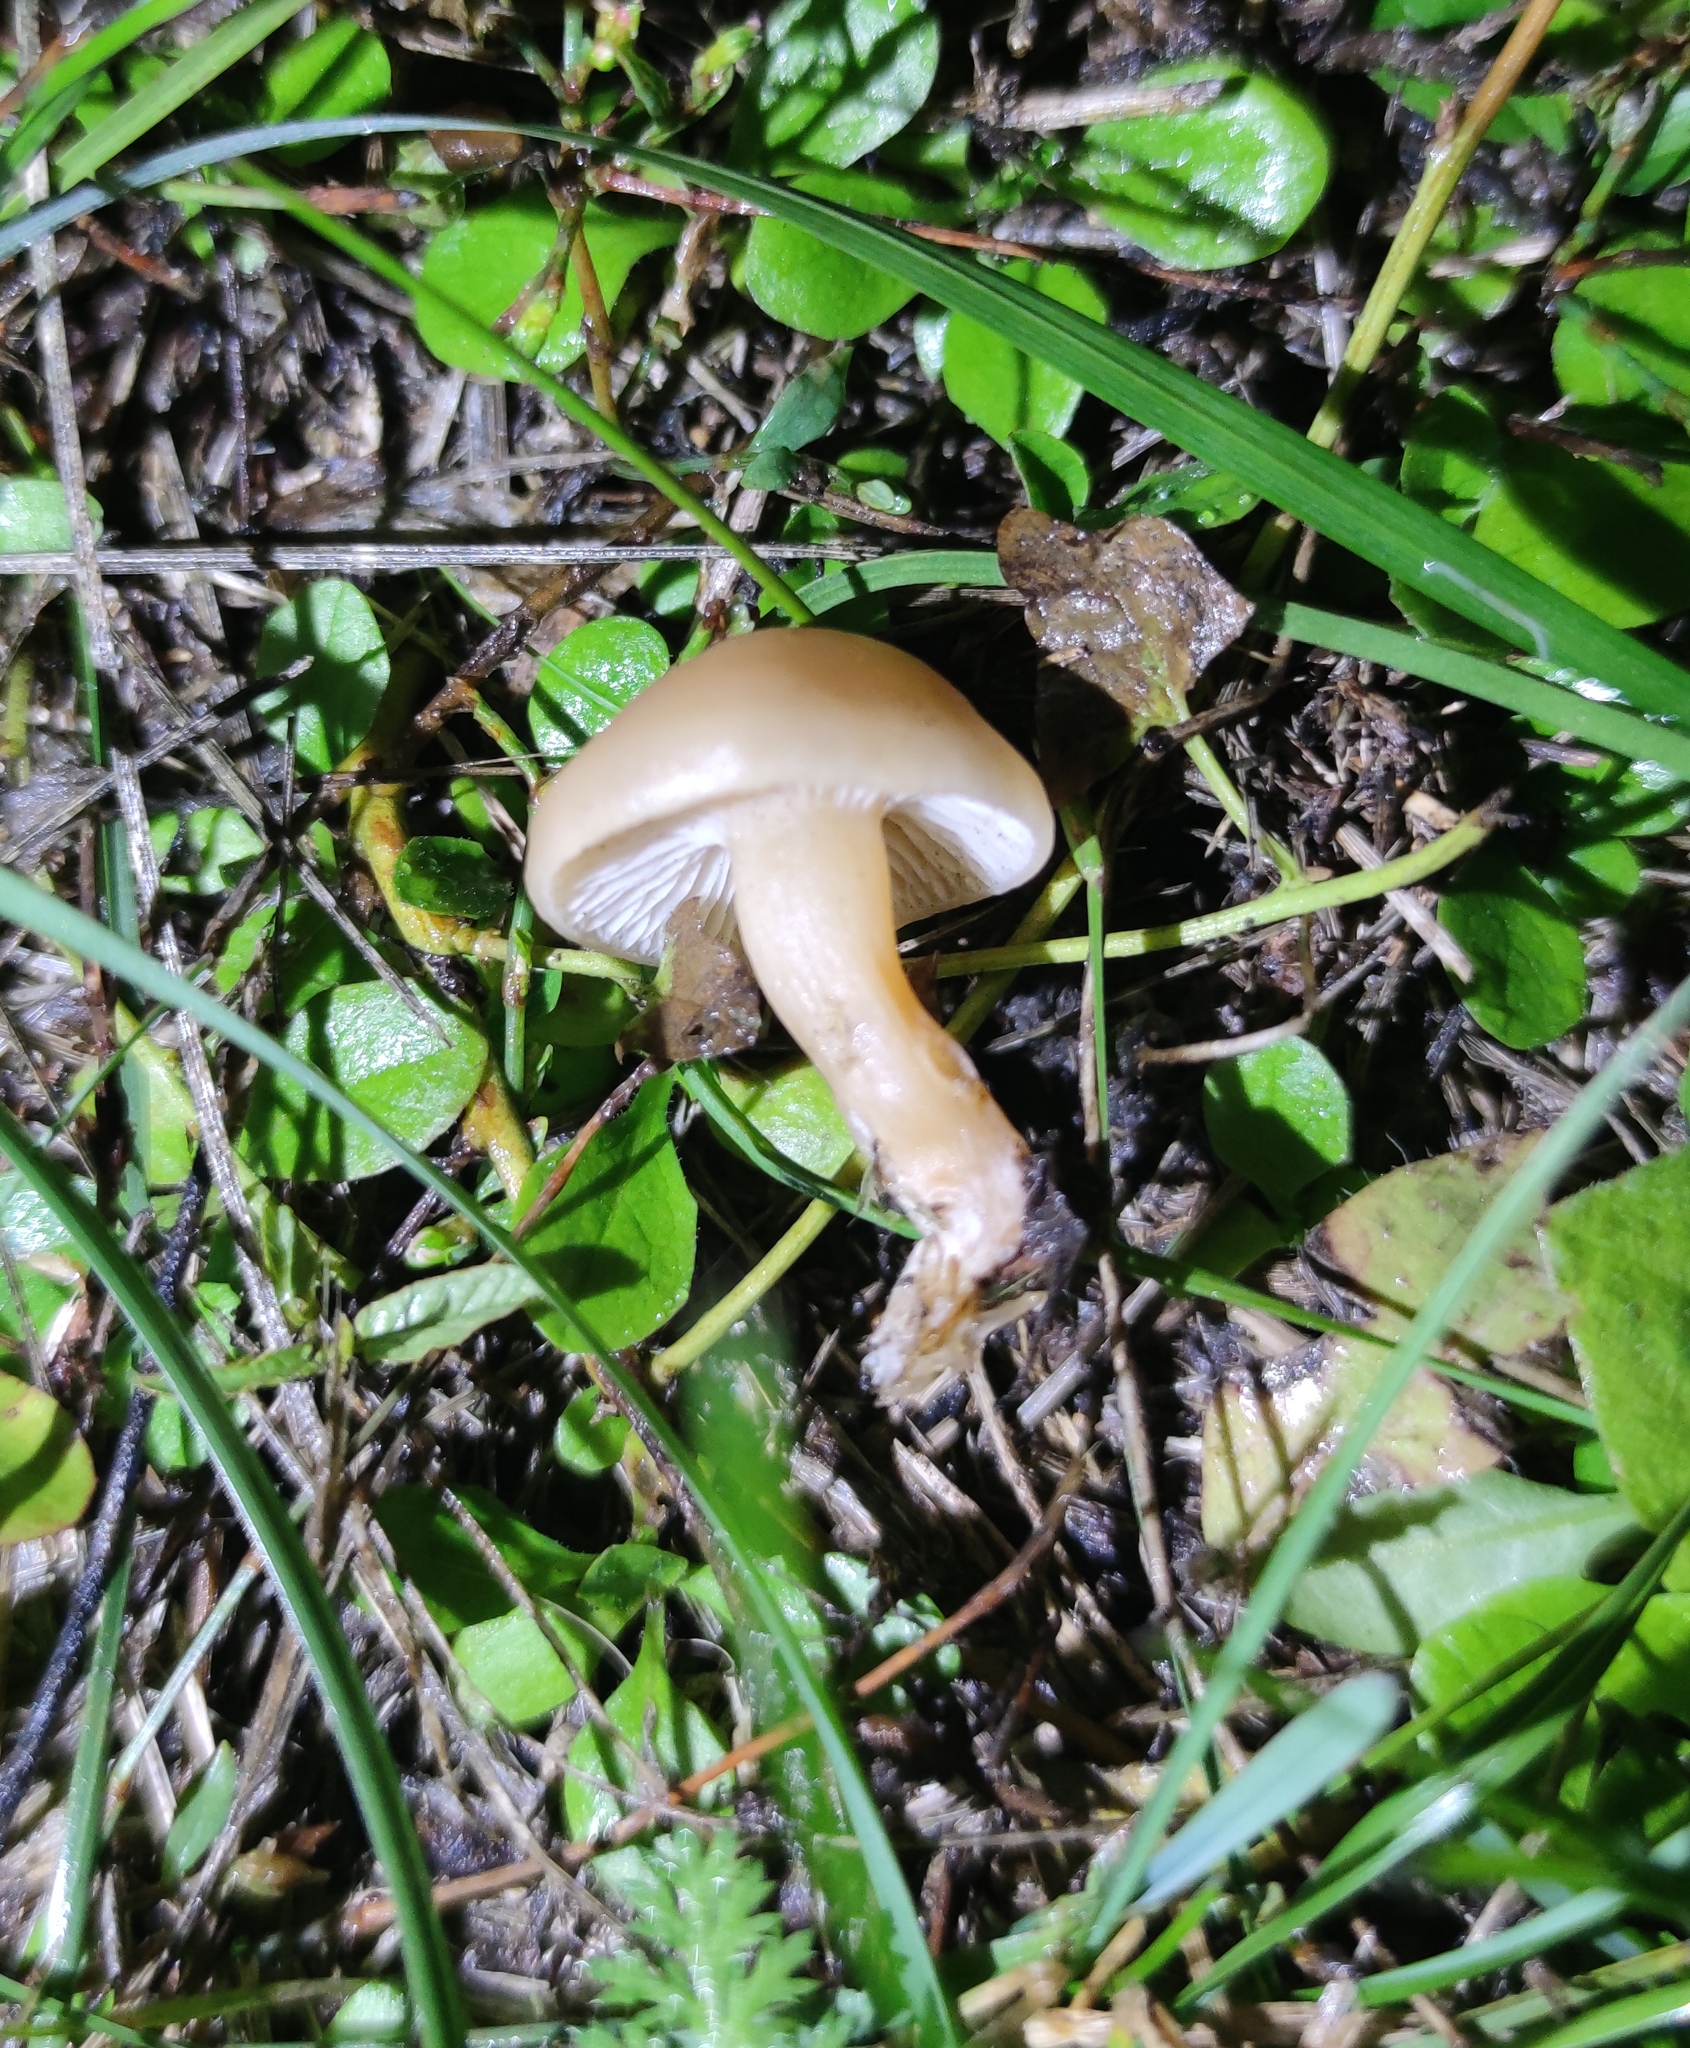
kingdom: Fungi
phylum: Basidiomycota
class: Agaricomycetes
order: Agaricales
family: Tricholomataceae
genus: Clitocybe
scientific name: Clitocybe fragrans
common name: Fragrant funnel
